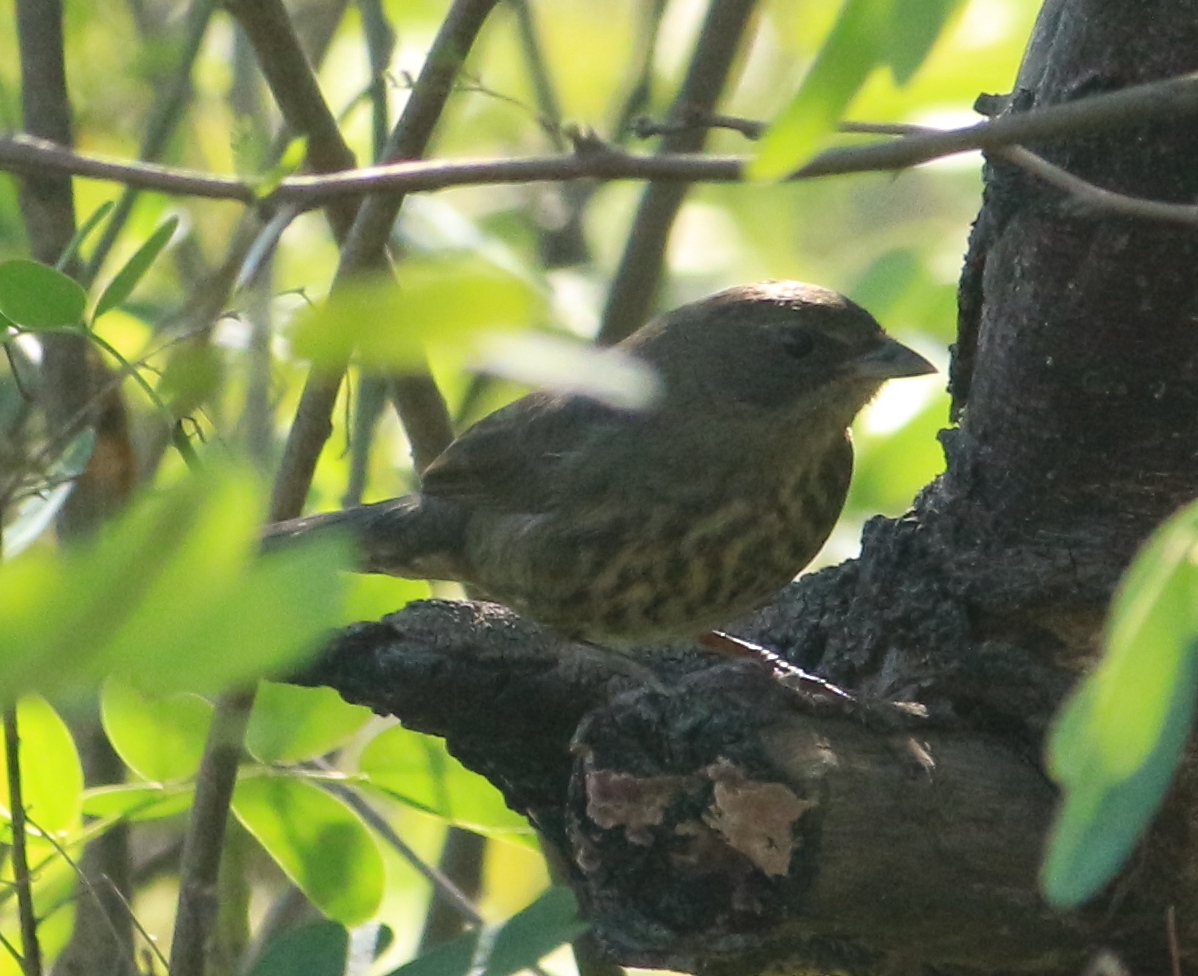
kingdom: Animalia
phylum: Chordata
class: Aves
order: Passeriformes
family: Thraupidae
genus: Poospiza
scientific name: Poospiza nigrorufa
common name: Black-and-rufous warbling finch
